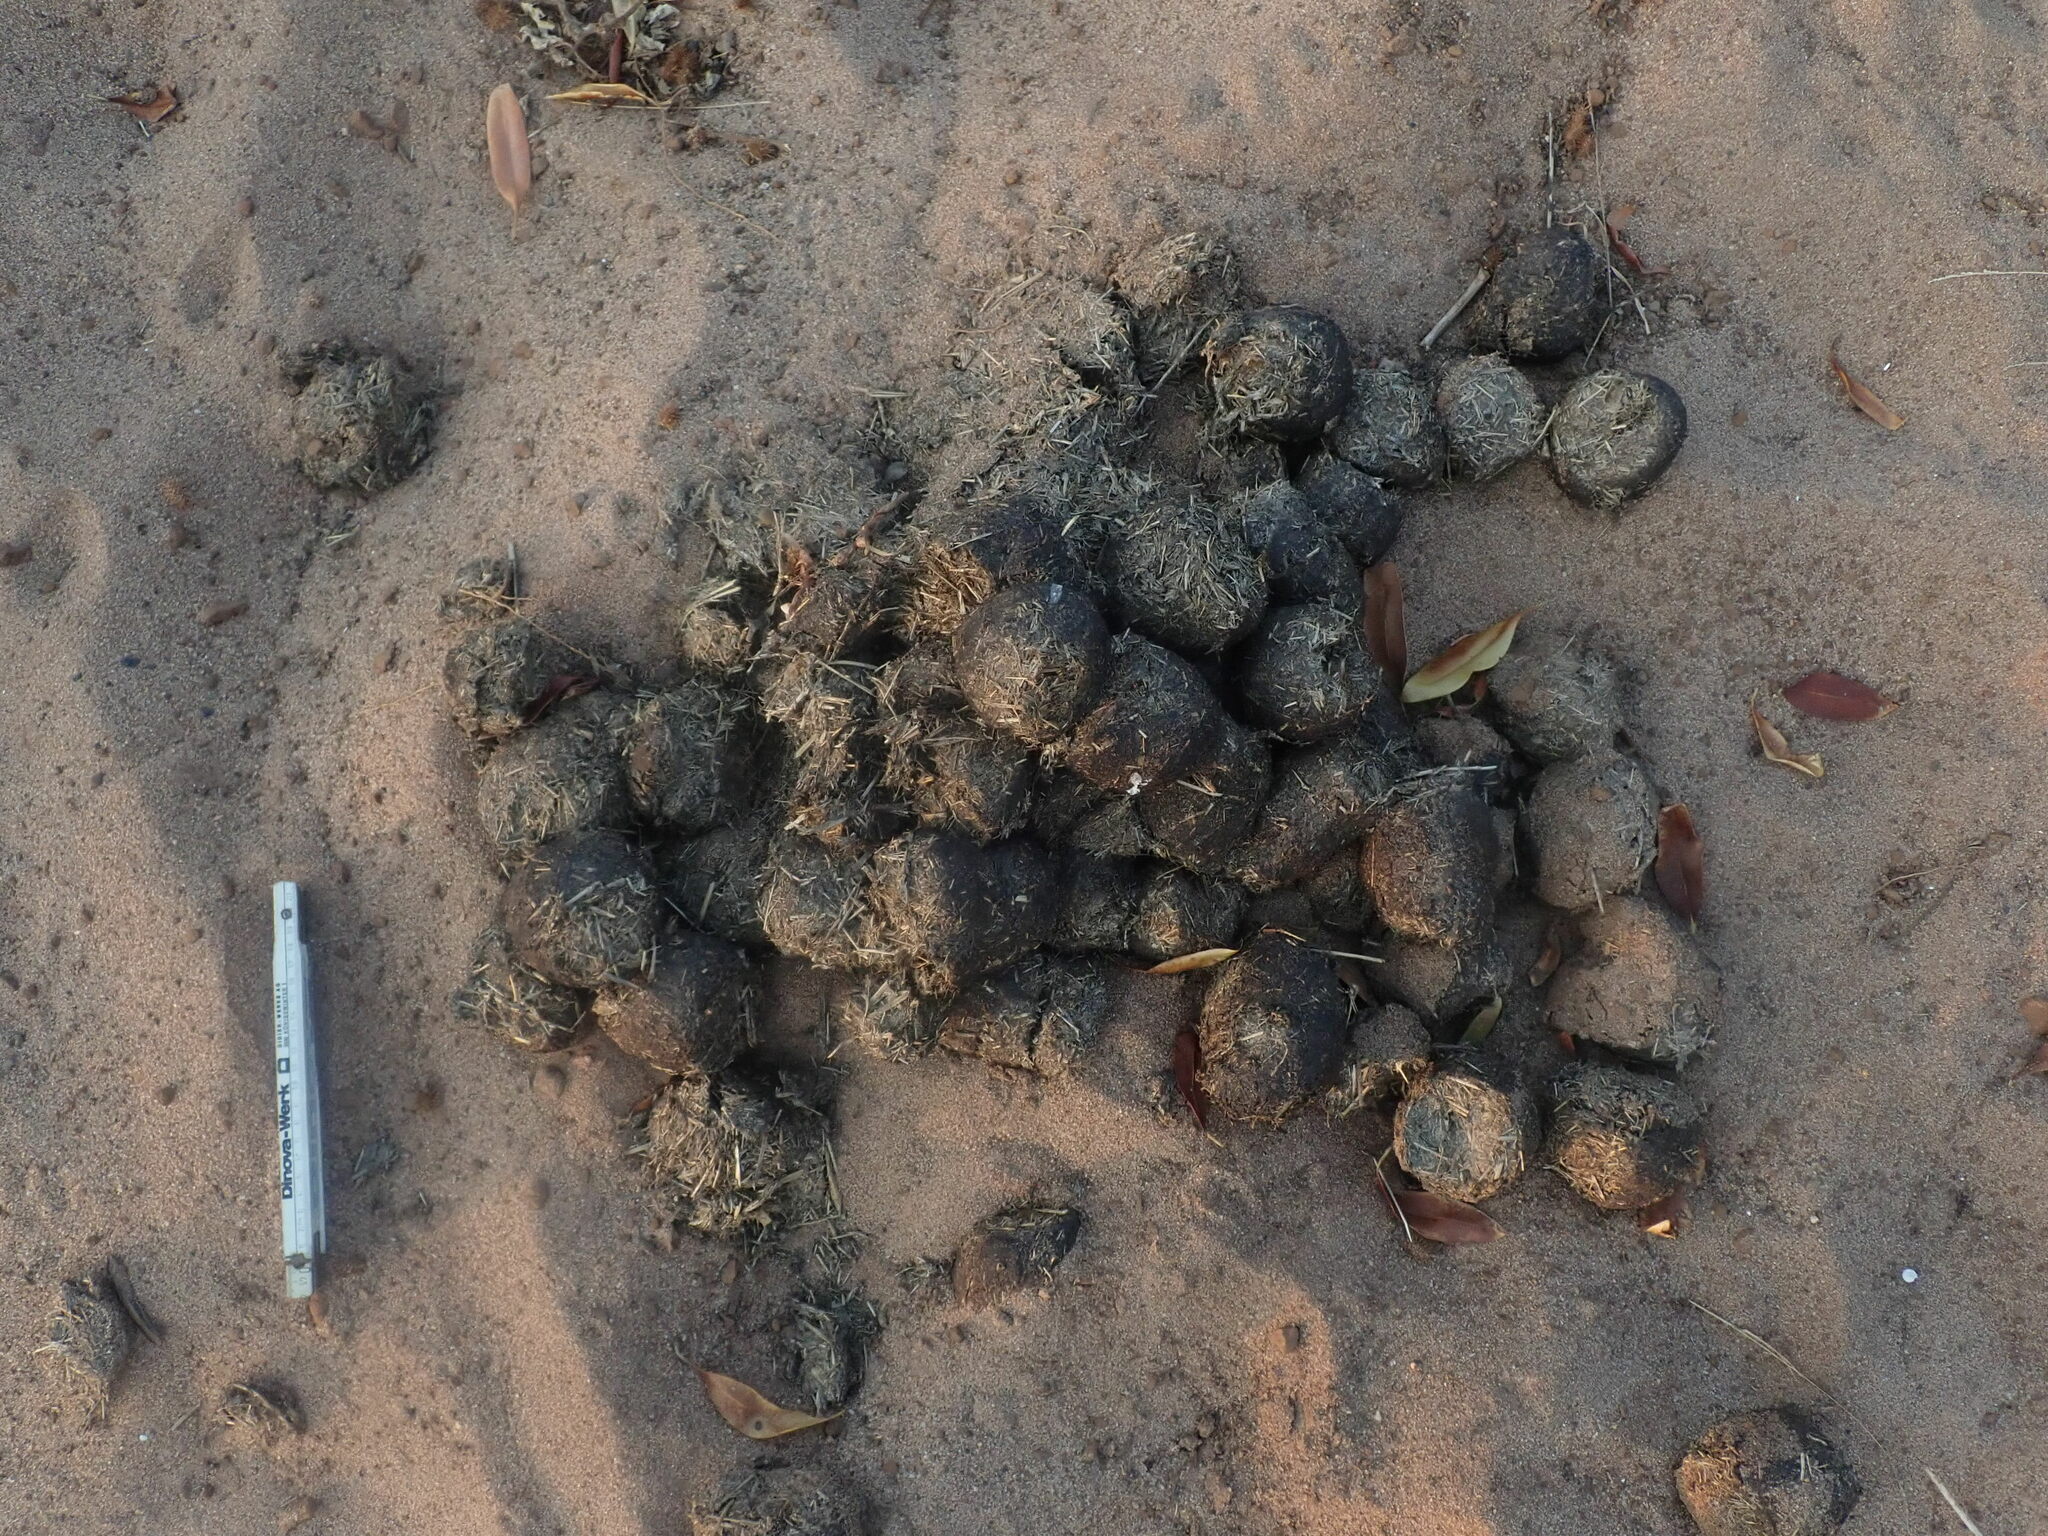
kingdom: Animalia
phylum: Chordata
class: Mammalia
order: Artiodactyla
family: Hippopotamidae
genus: Hippopotamus
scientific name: Hippopotamus amphibius
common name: Common hippopotamus
